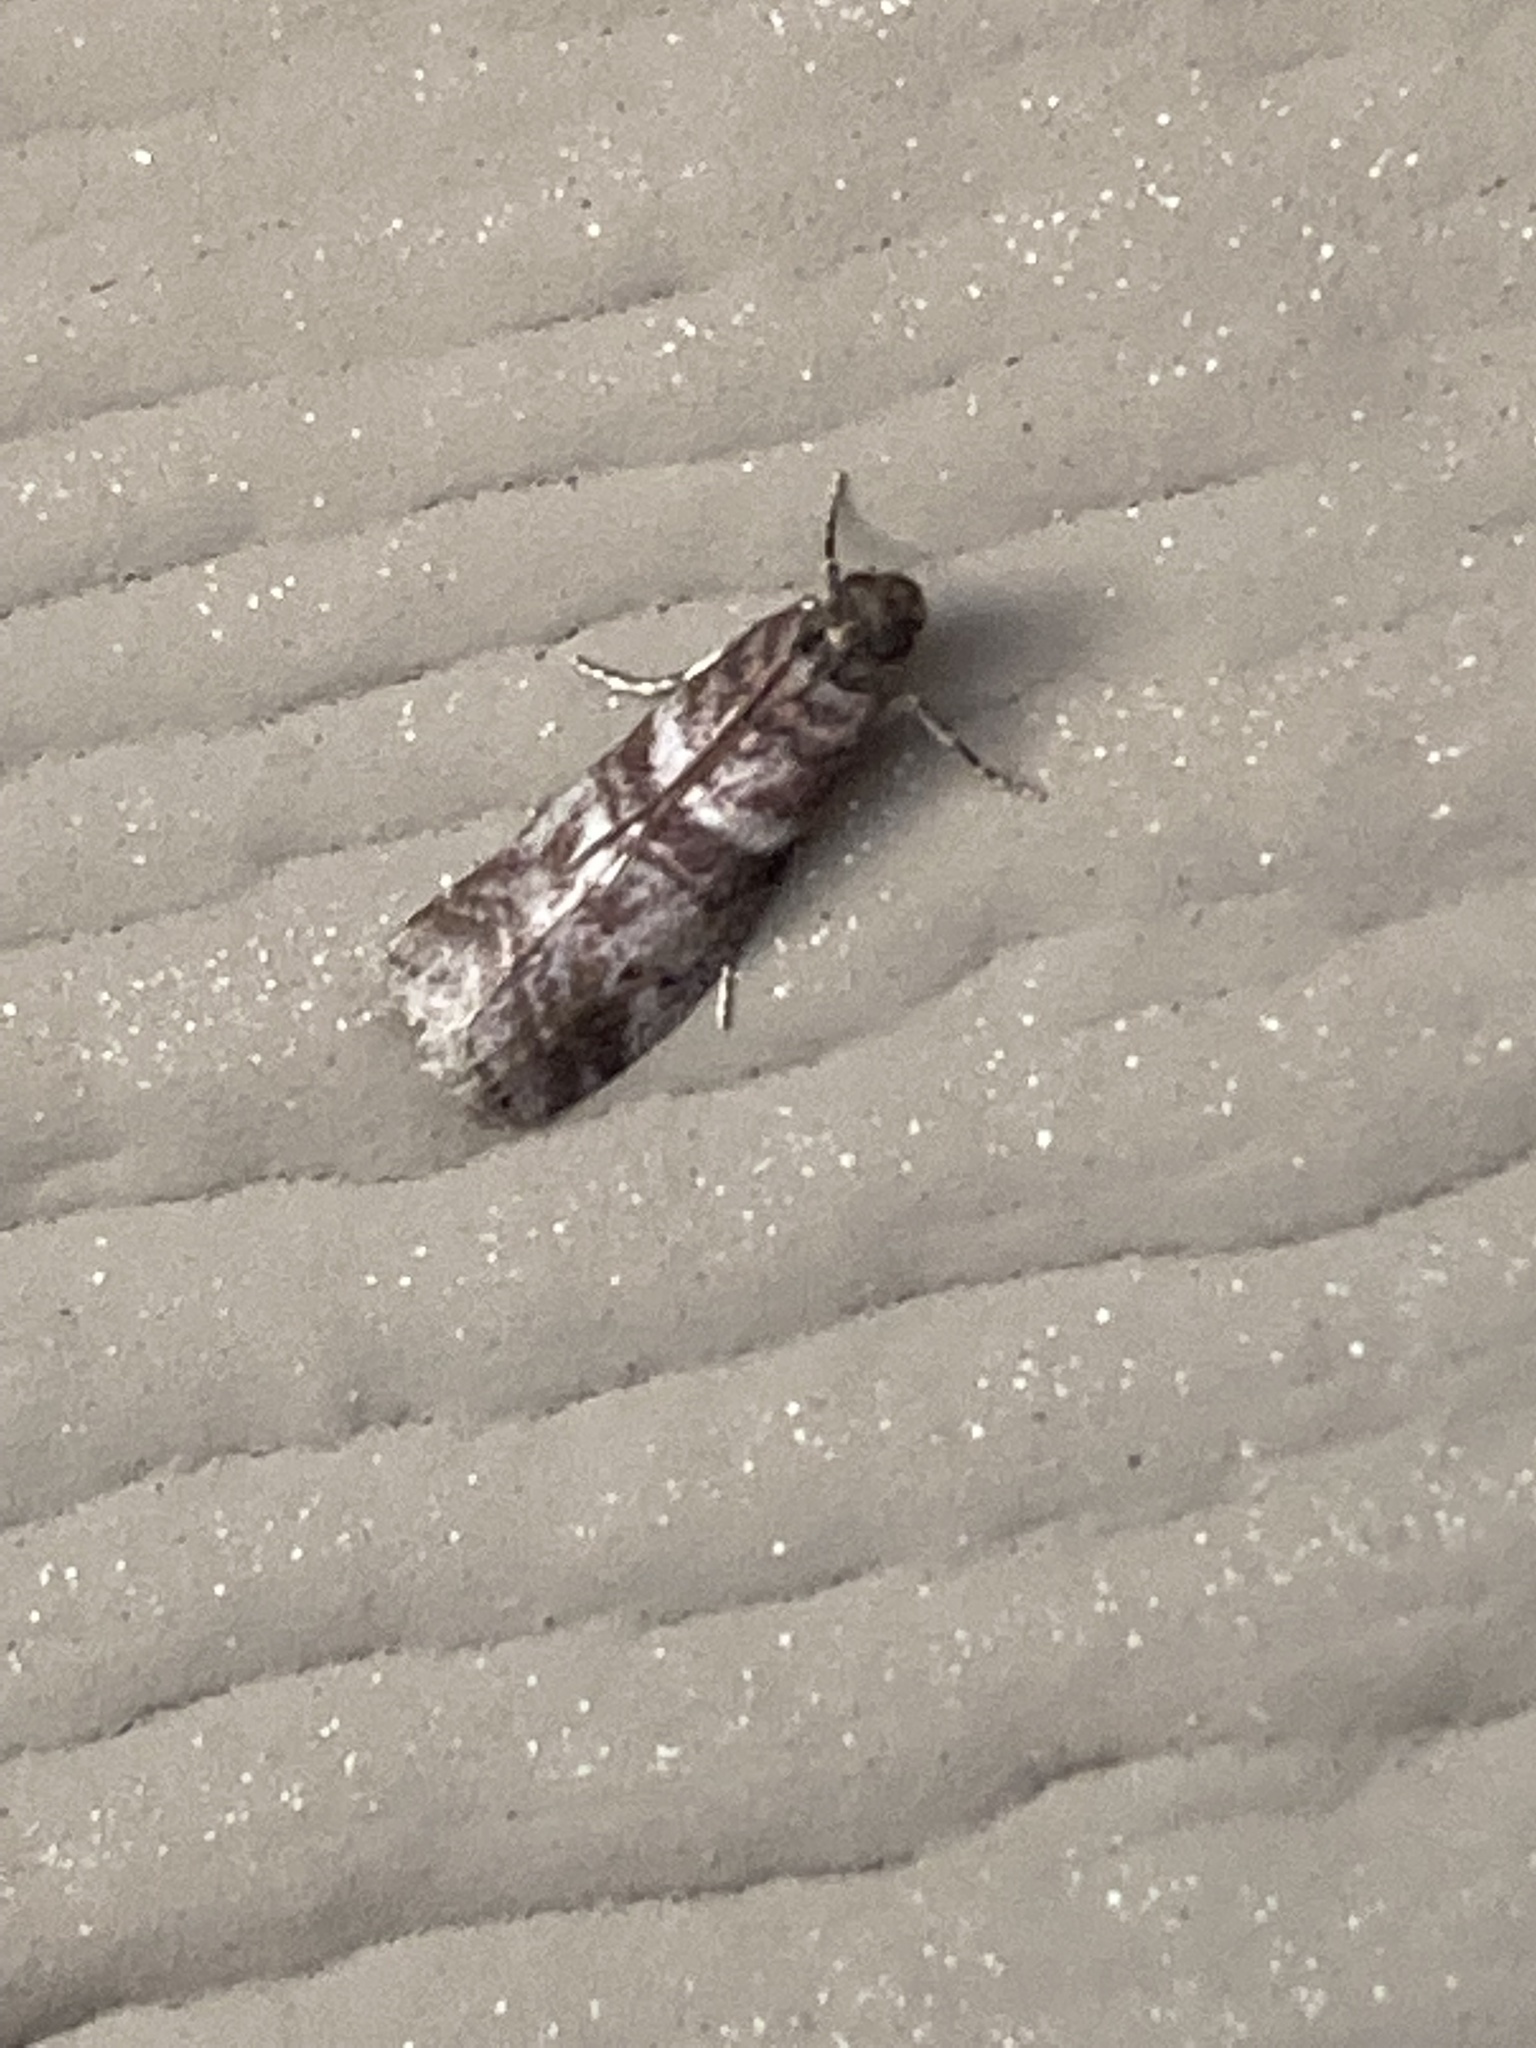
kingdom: Animalia
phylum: Arthropoda
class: Insecta
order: Lepidoptera
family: Pyralidae
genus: Sciota
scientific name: Sciota uvinella
